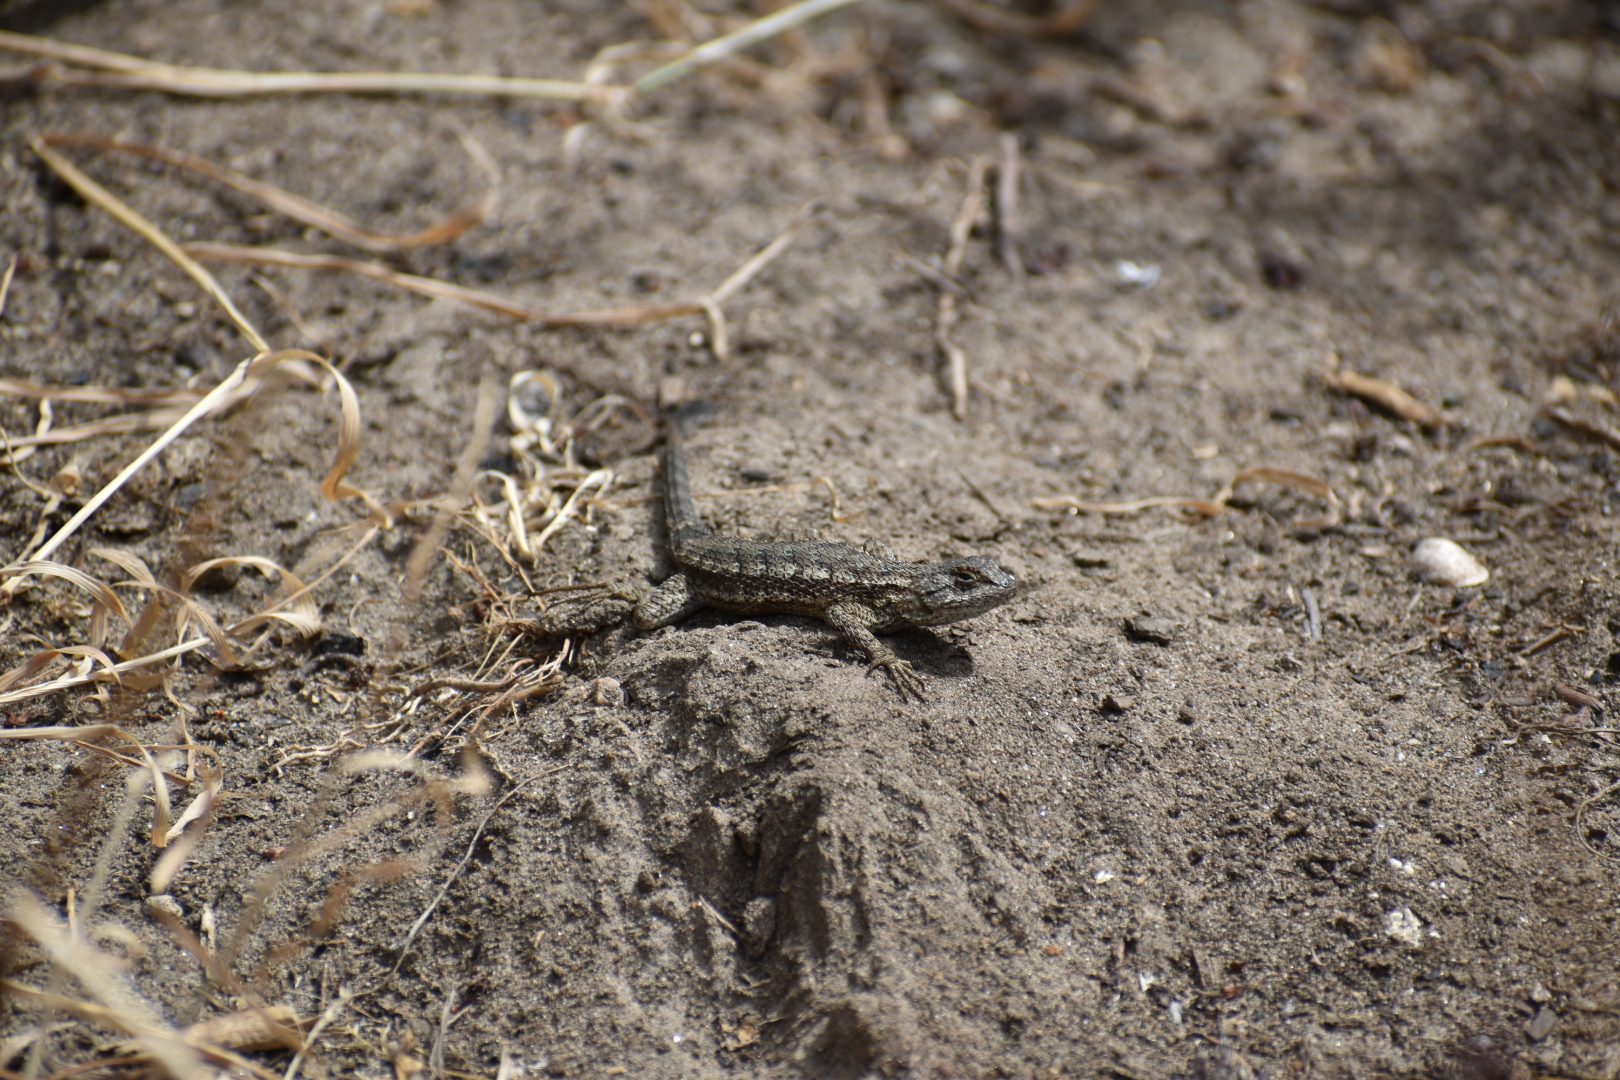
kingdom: Animalia
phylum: Chordata
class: Squamata
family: Phrynosomatidae
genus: Sceloporus
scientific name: Sceloporus occidentalis
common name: Western fence lizard
